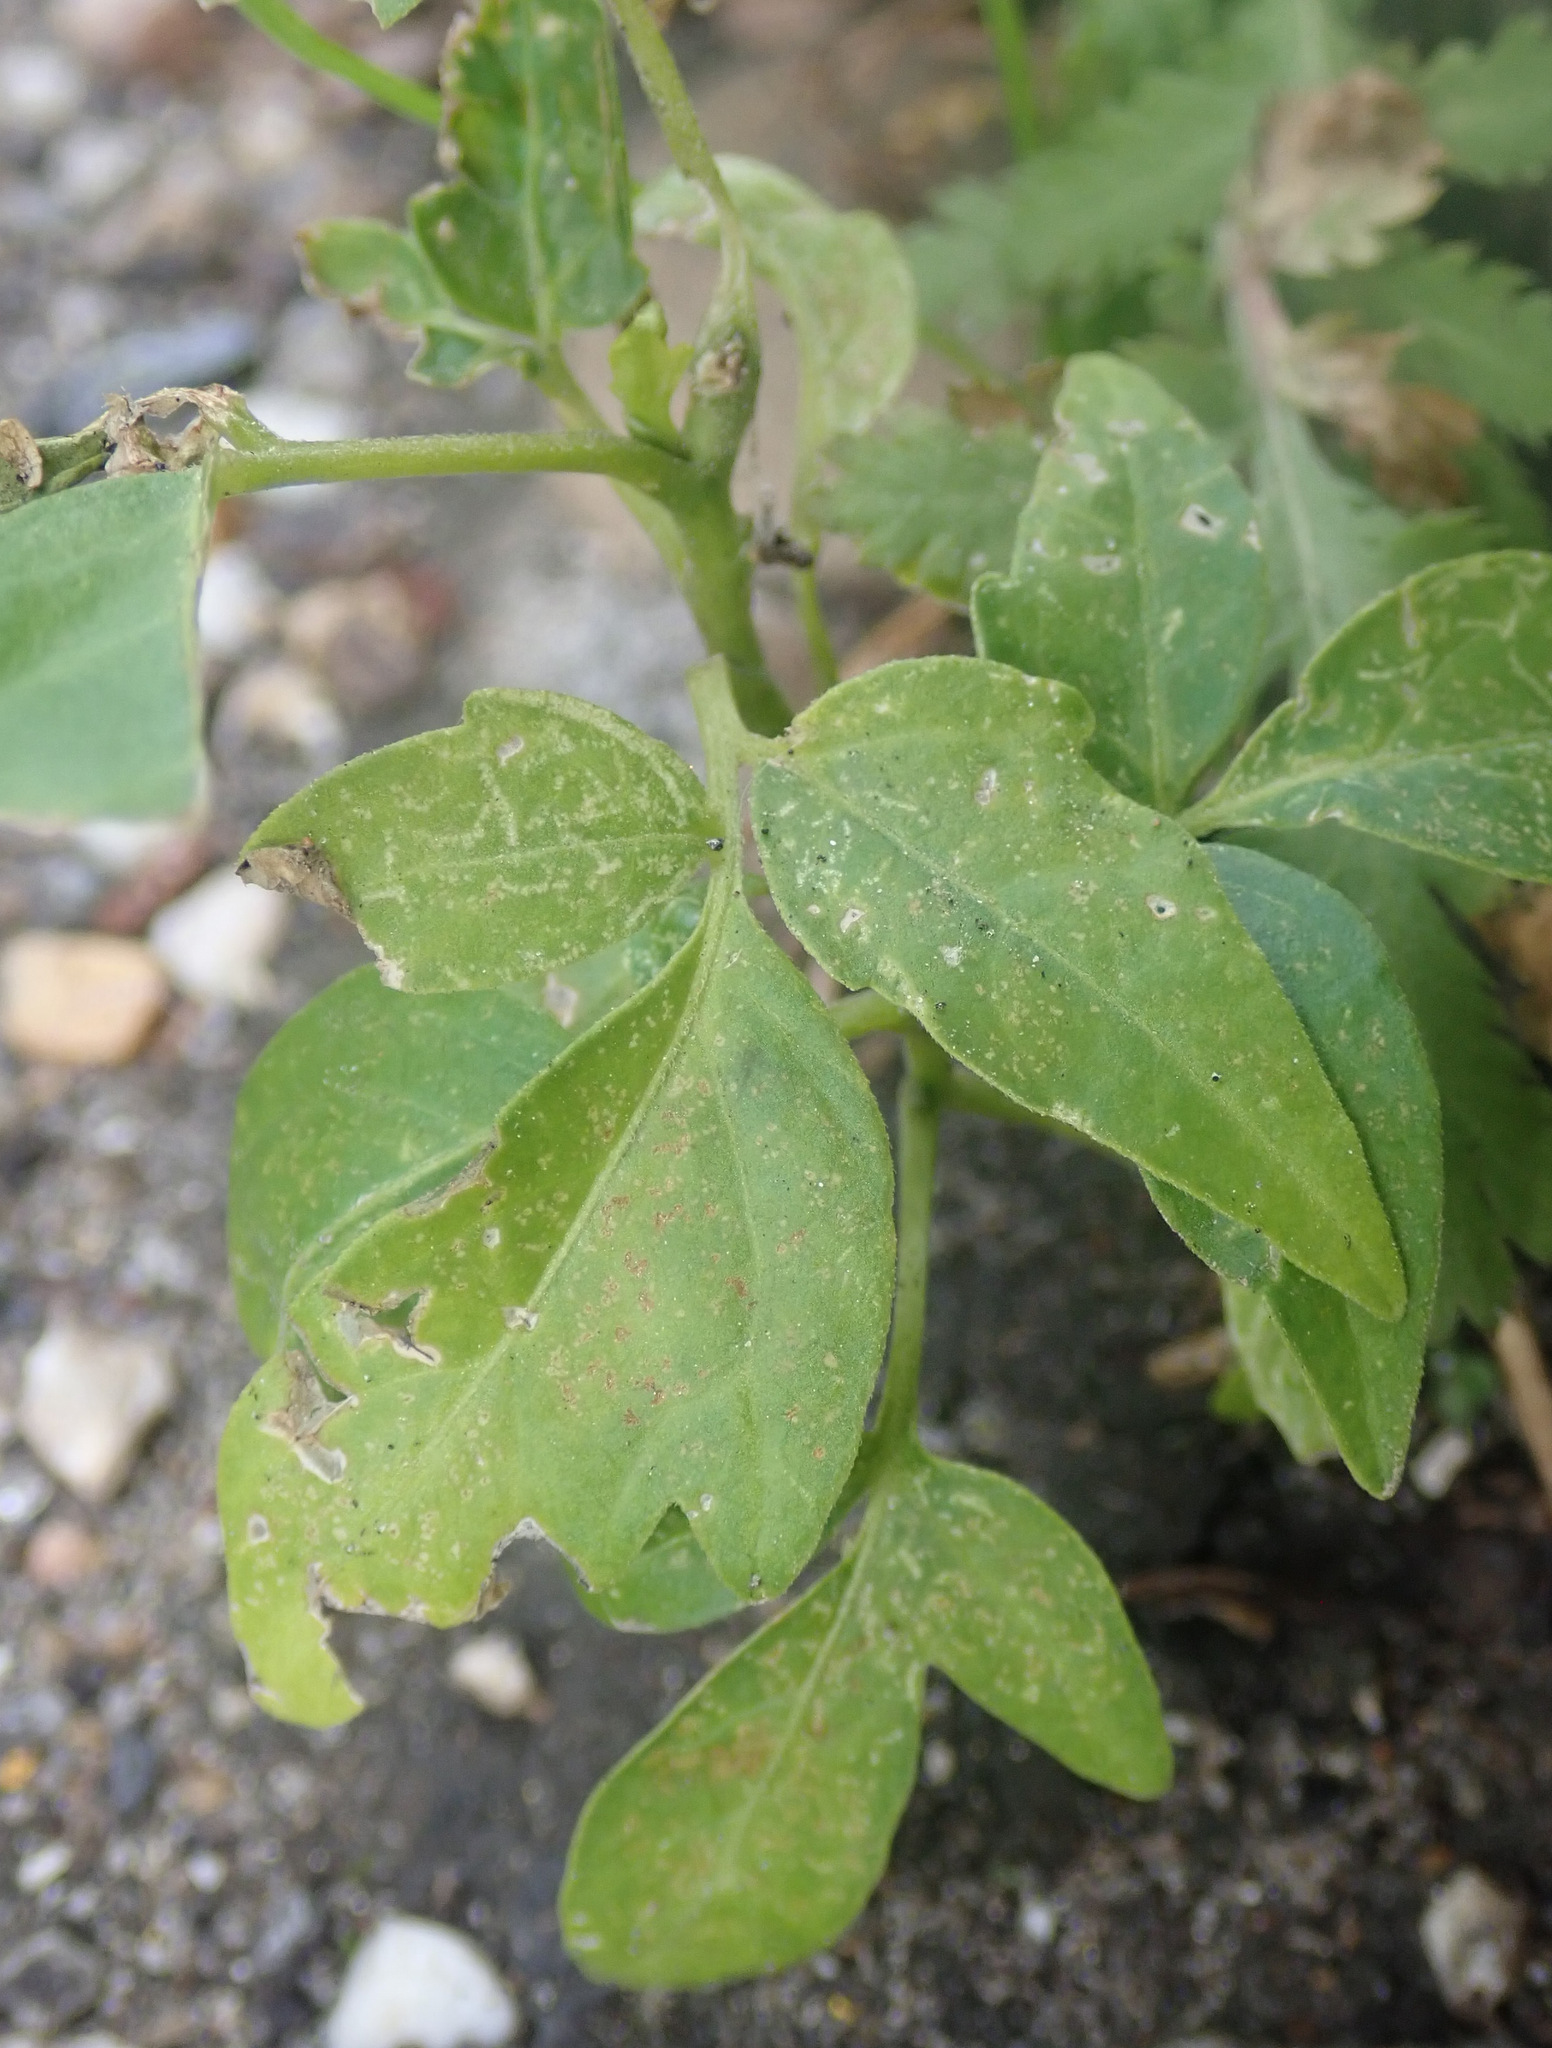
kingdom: Plantae
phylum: Tracheophyta
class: Magnoliopsida
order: Sapindales
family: Simaroubaceae
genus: Ailanthus
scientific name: Ailanthus altissima
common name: Tree-of-heaven
